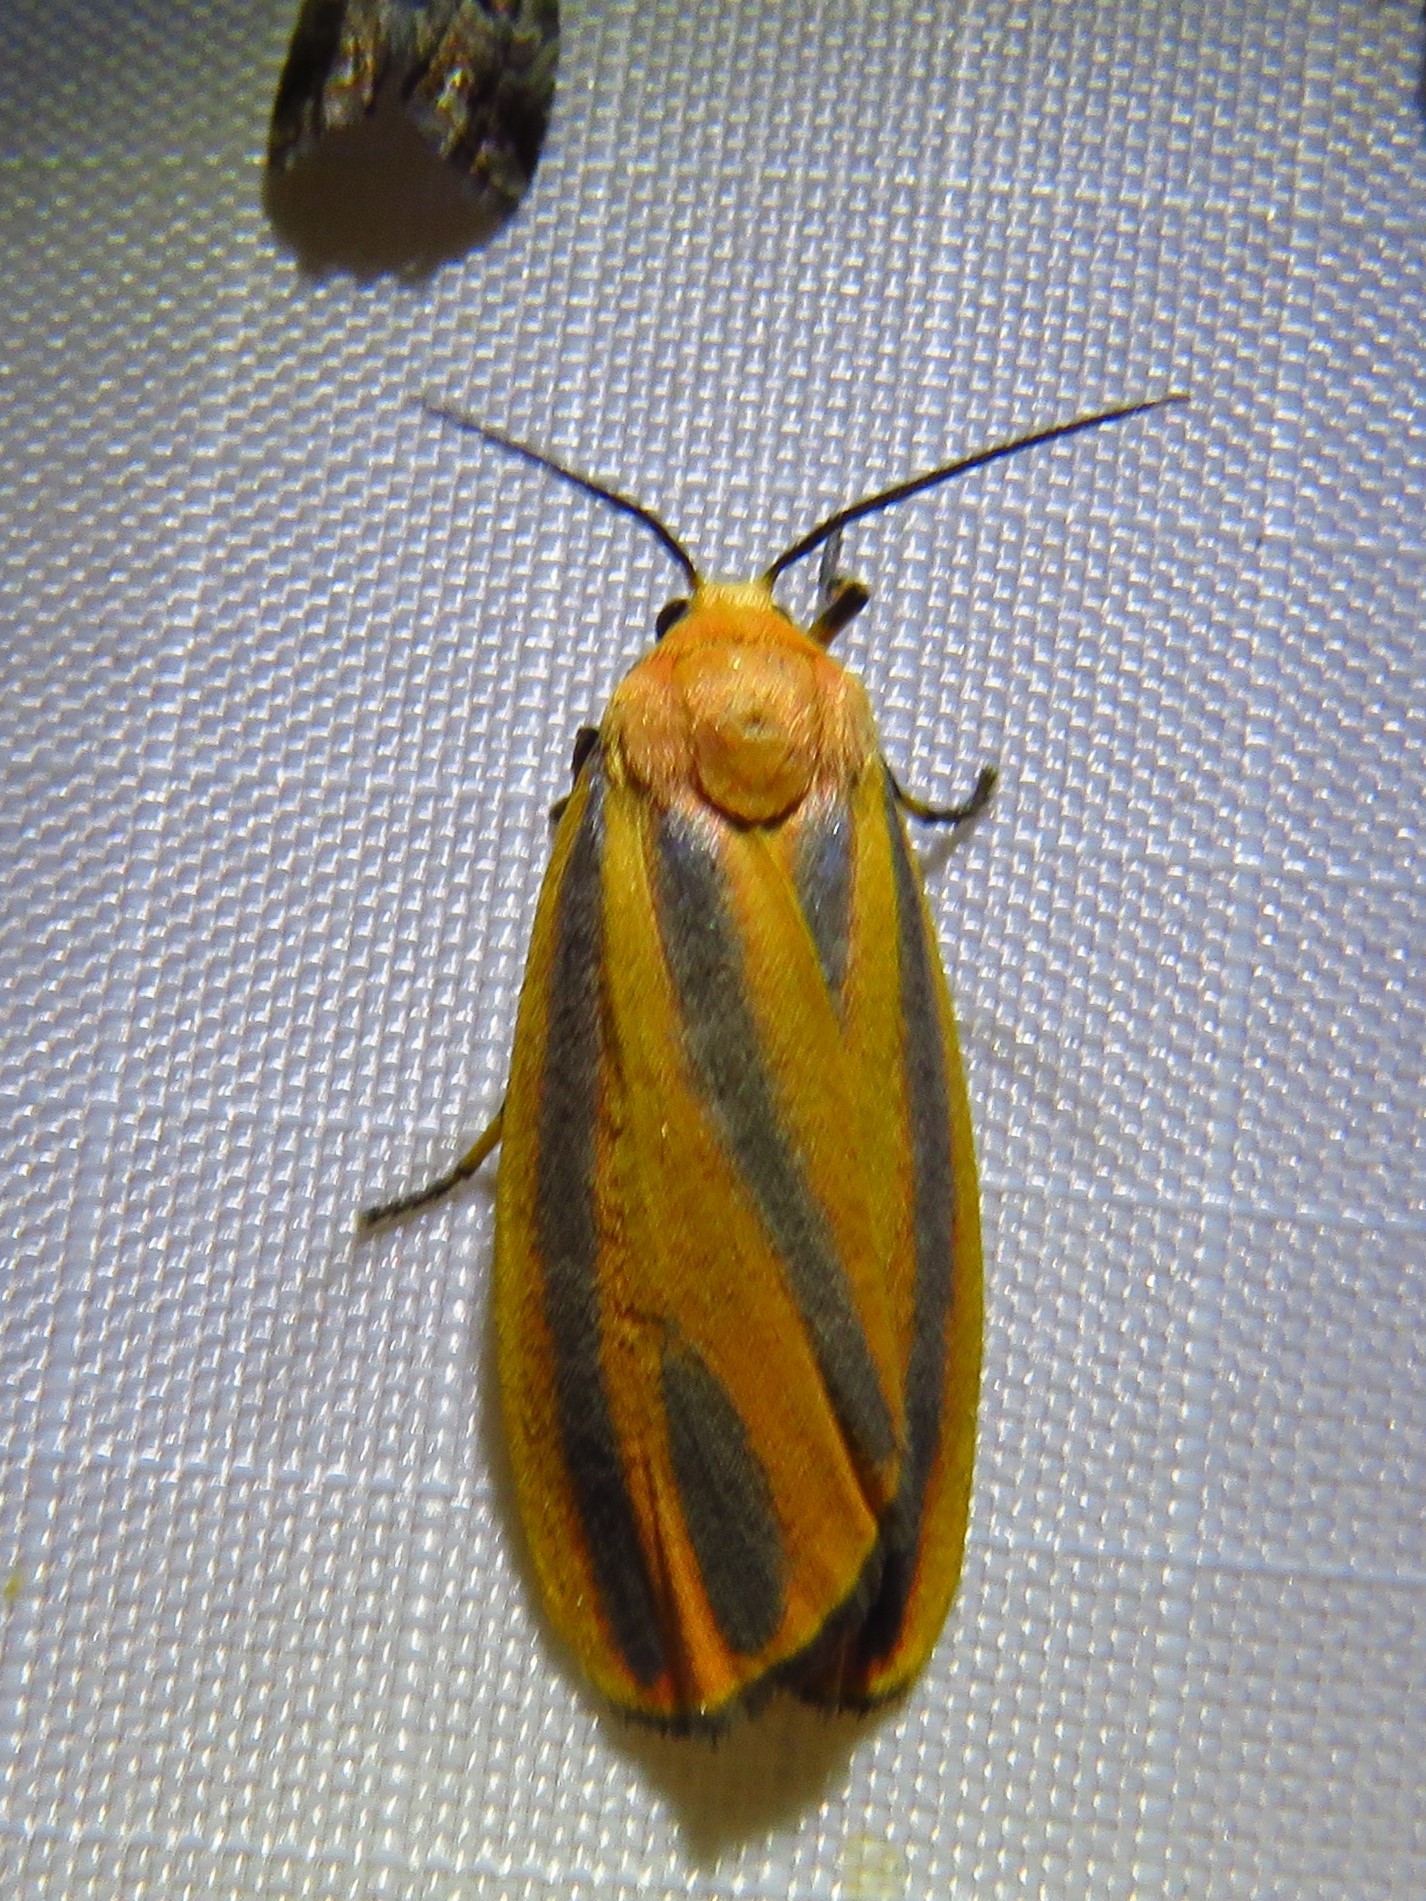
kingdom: Animalia
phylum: Arthropoda
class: Insecta
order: Lepidoptera
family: Erebidae
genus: Hypoprepia
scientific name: Hypoprepia fucosa
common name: Painted lichen moth
